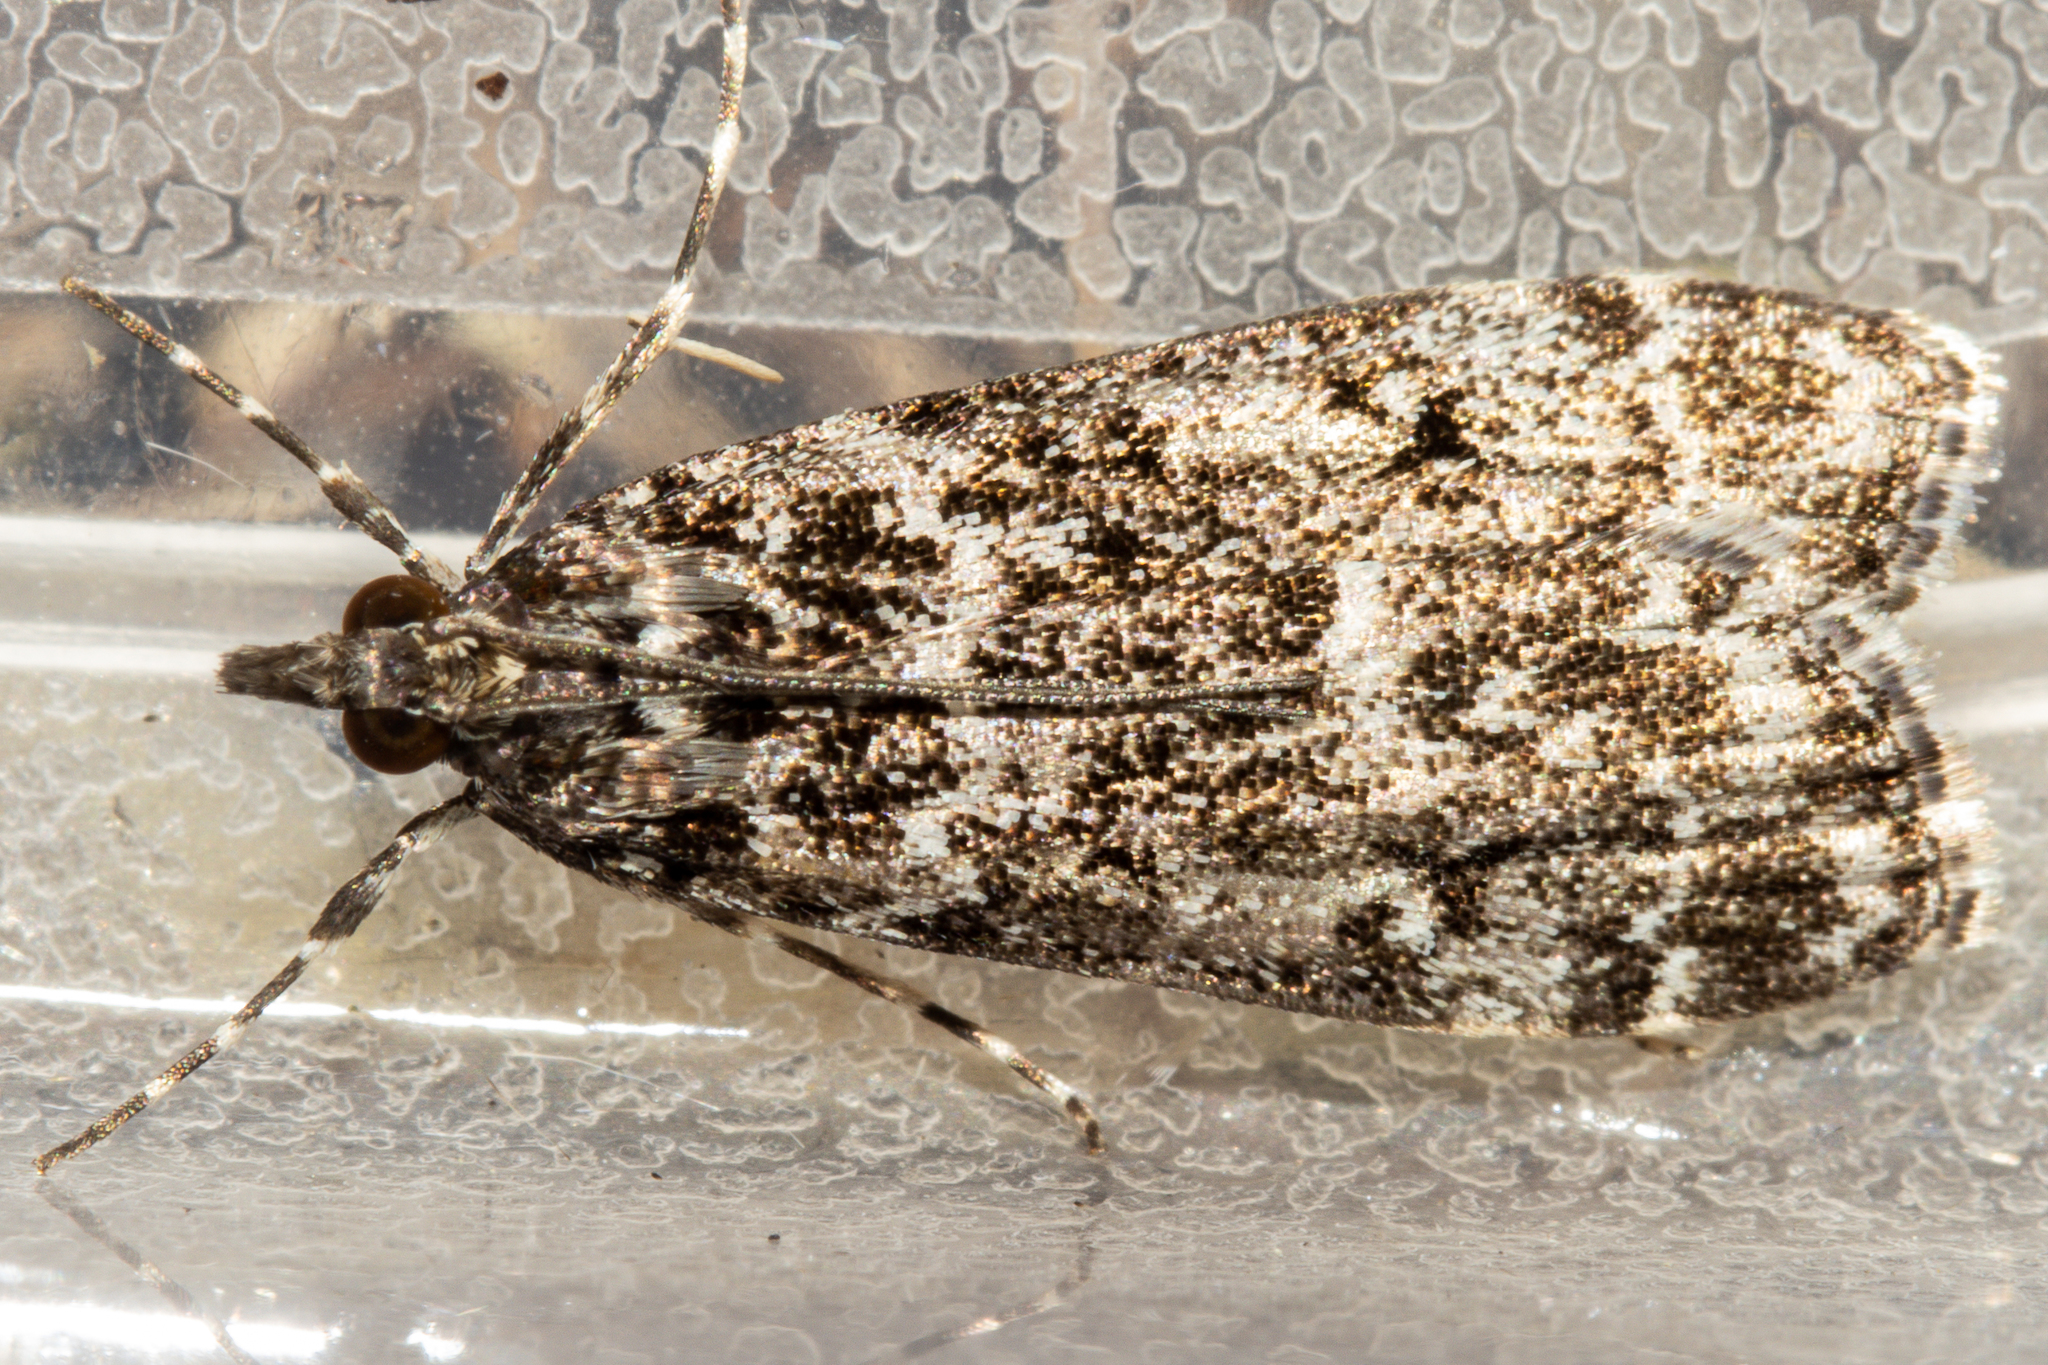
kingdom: Animalia
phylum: Arthropoda
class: Insecta
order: Lepidoptera
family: Crambidae
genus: Eudonia
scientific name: Eudonia philerga
